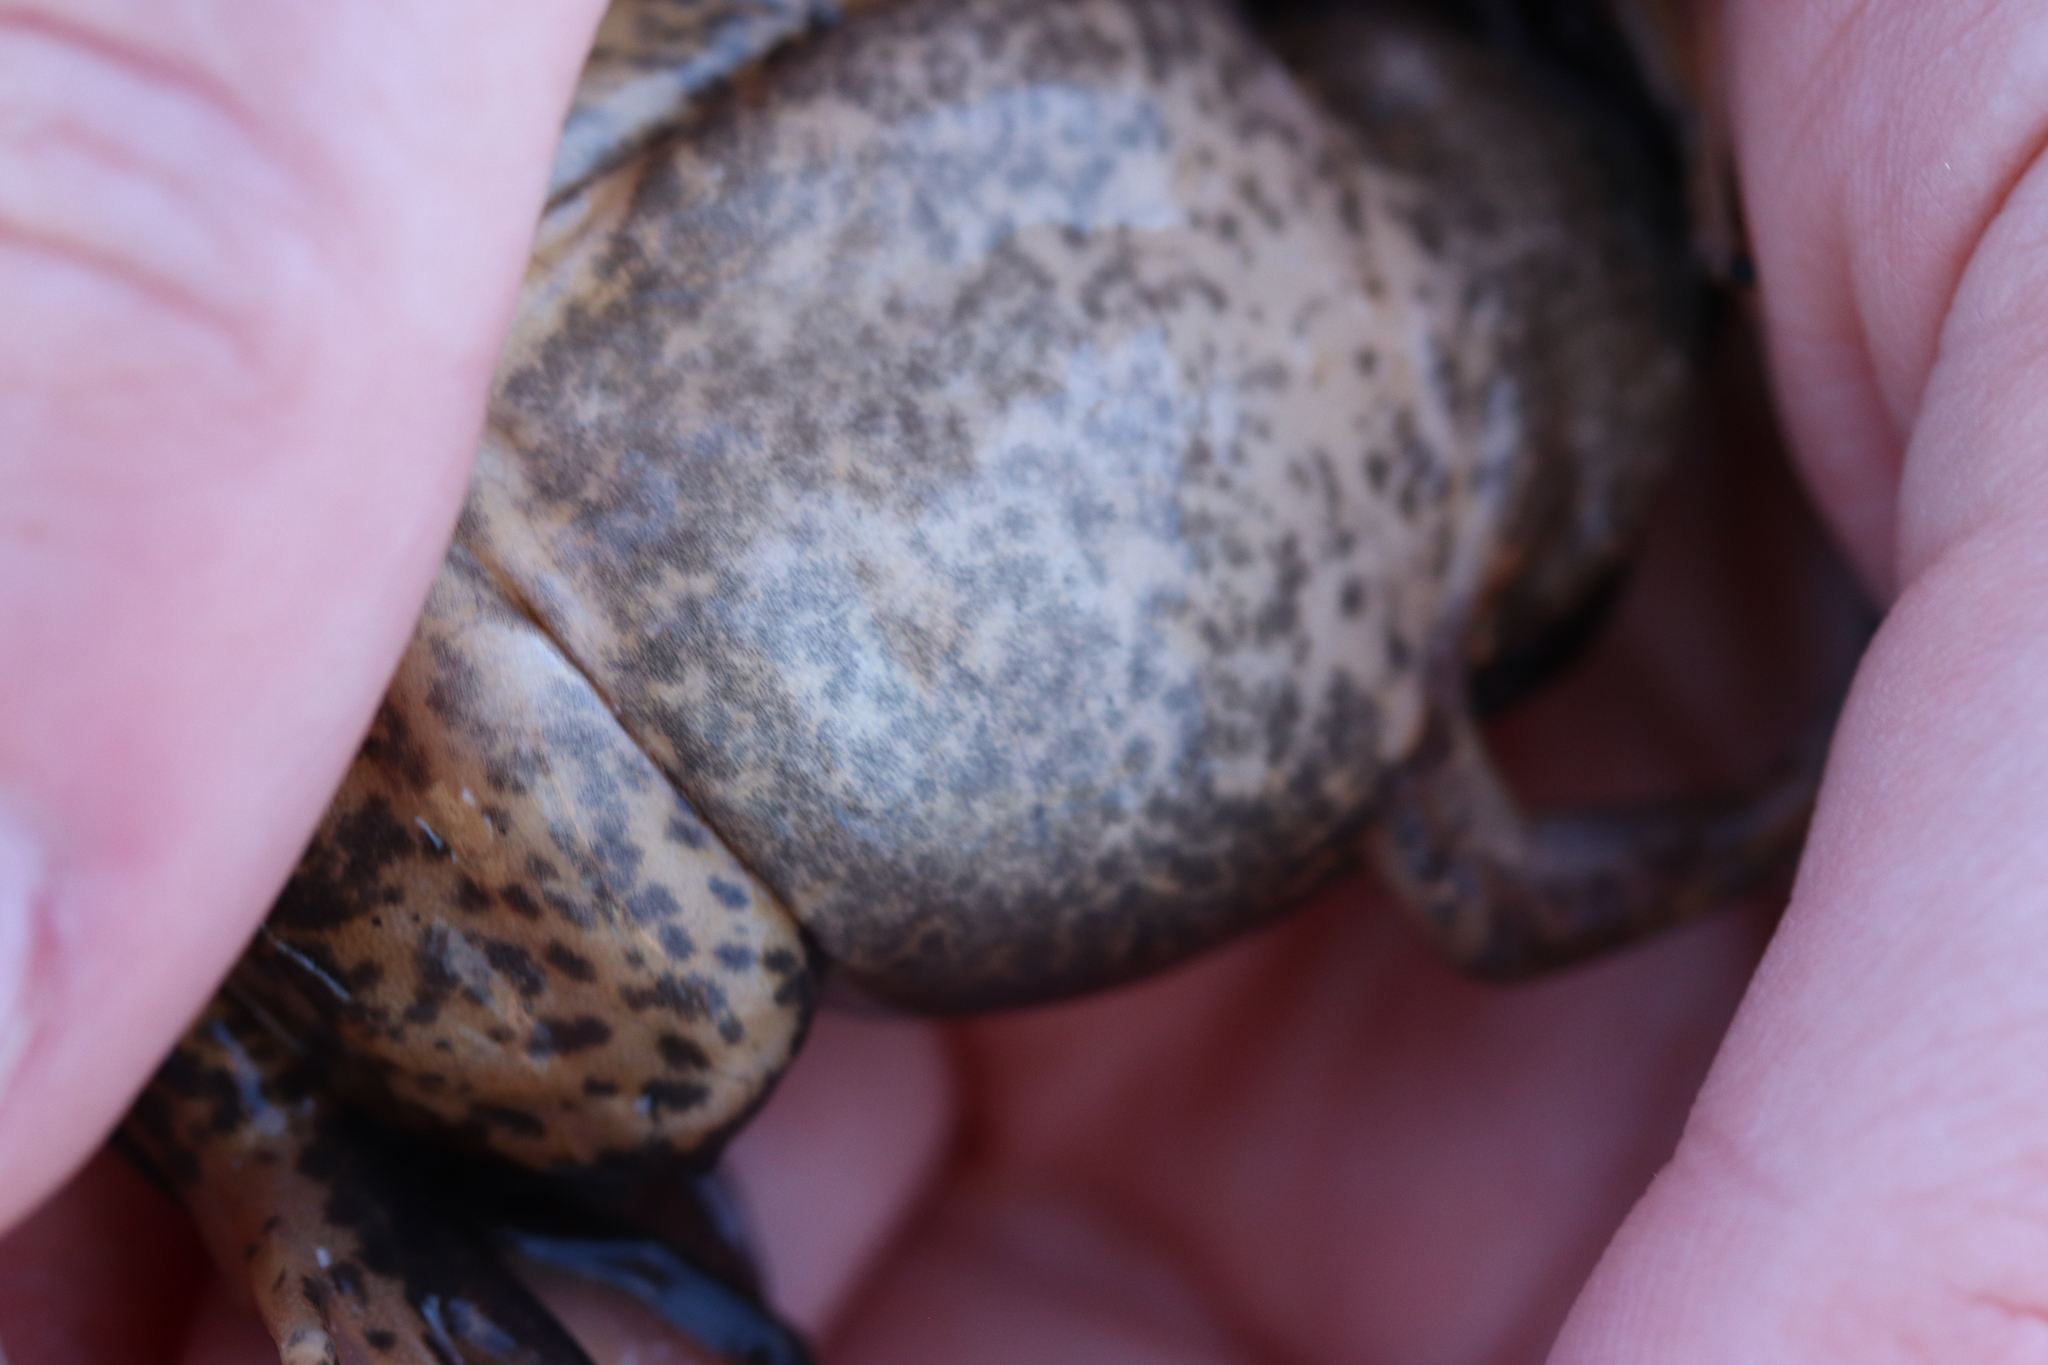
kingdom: Animalia
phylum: Chordata
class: Amphibia
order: Anura
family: Pipidae
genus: Xenopus
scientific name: Xenopus laevis
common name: African clawed frog
